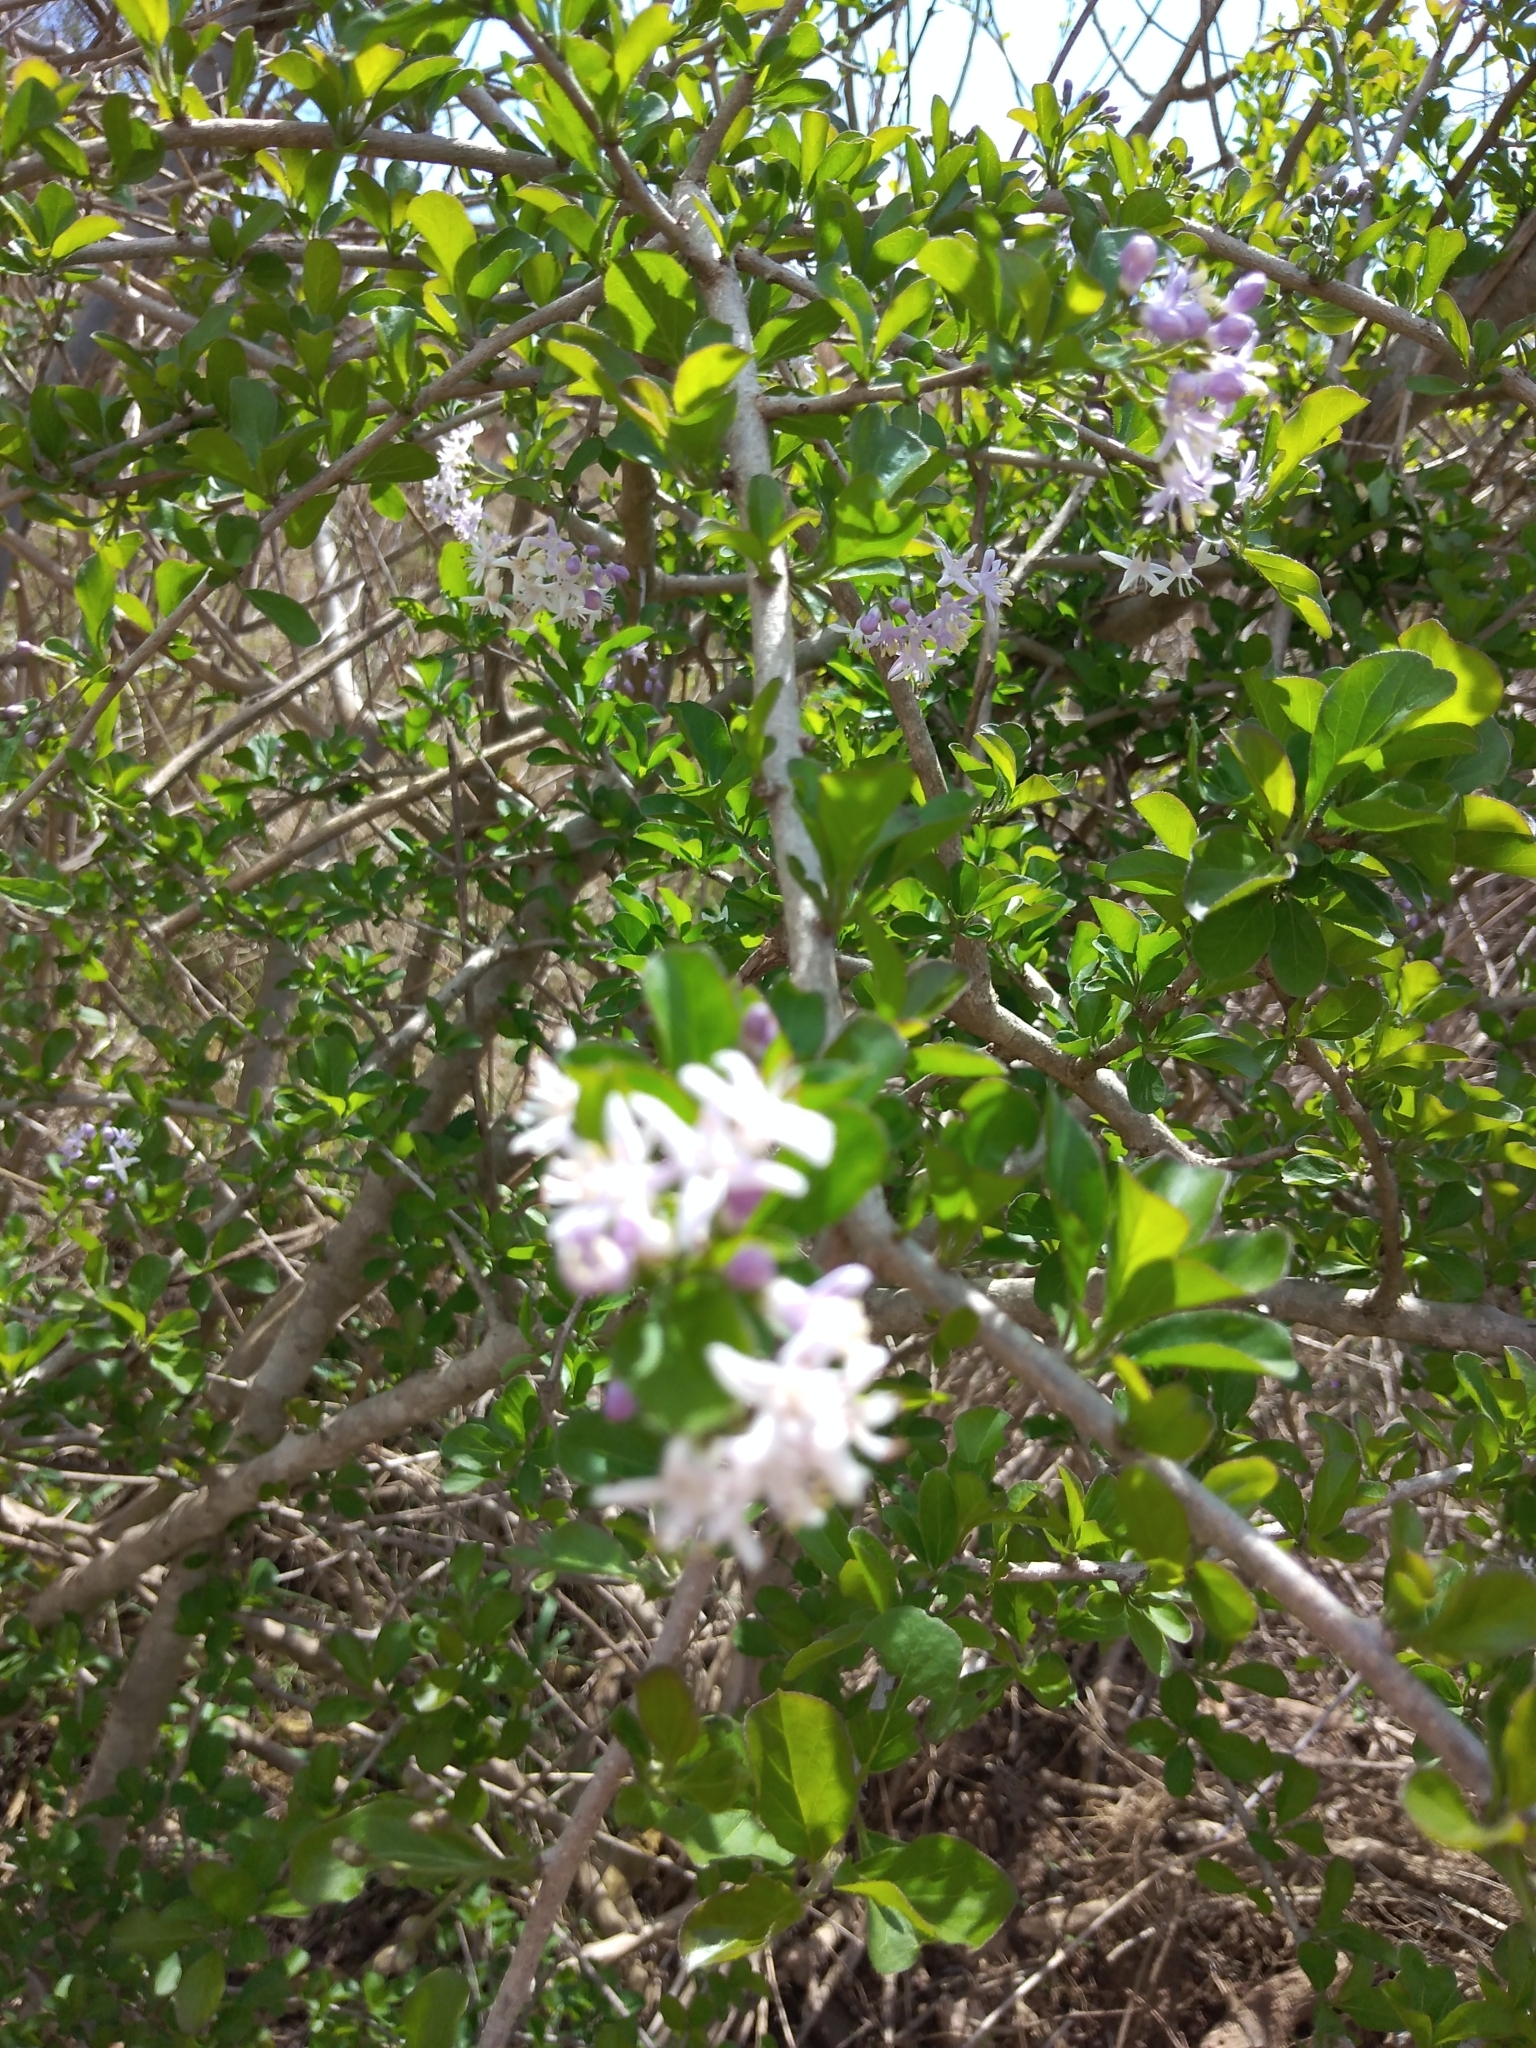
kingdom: Plantae
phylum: Tracheophyta
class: Magnoliopsida
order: Boraginales
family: Ehretiaceae
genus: Ehretia
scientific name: Ehretia rigida
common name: Cape lilac
